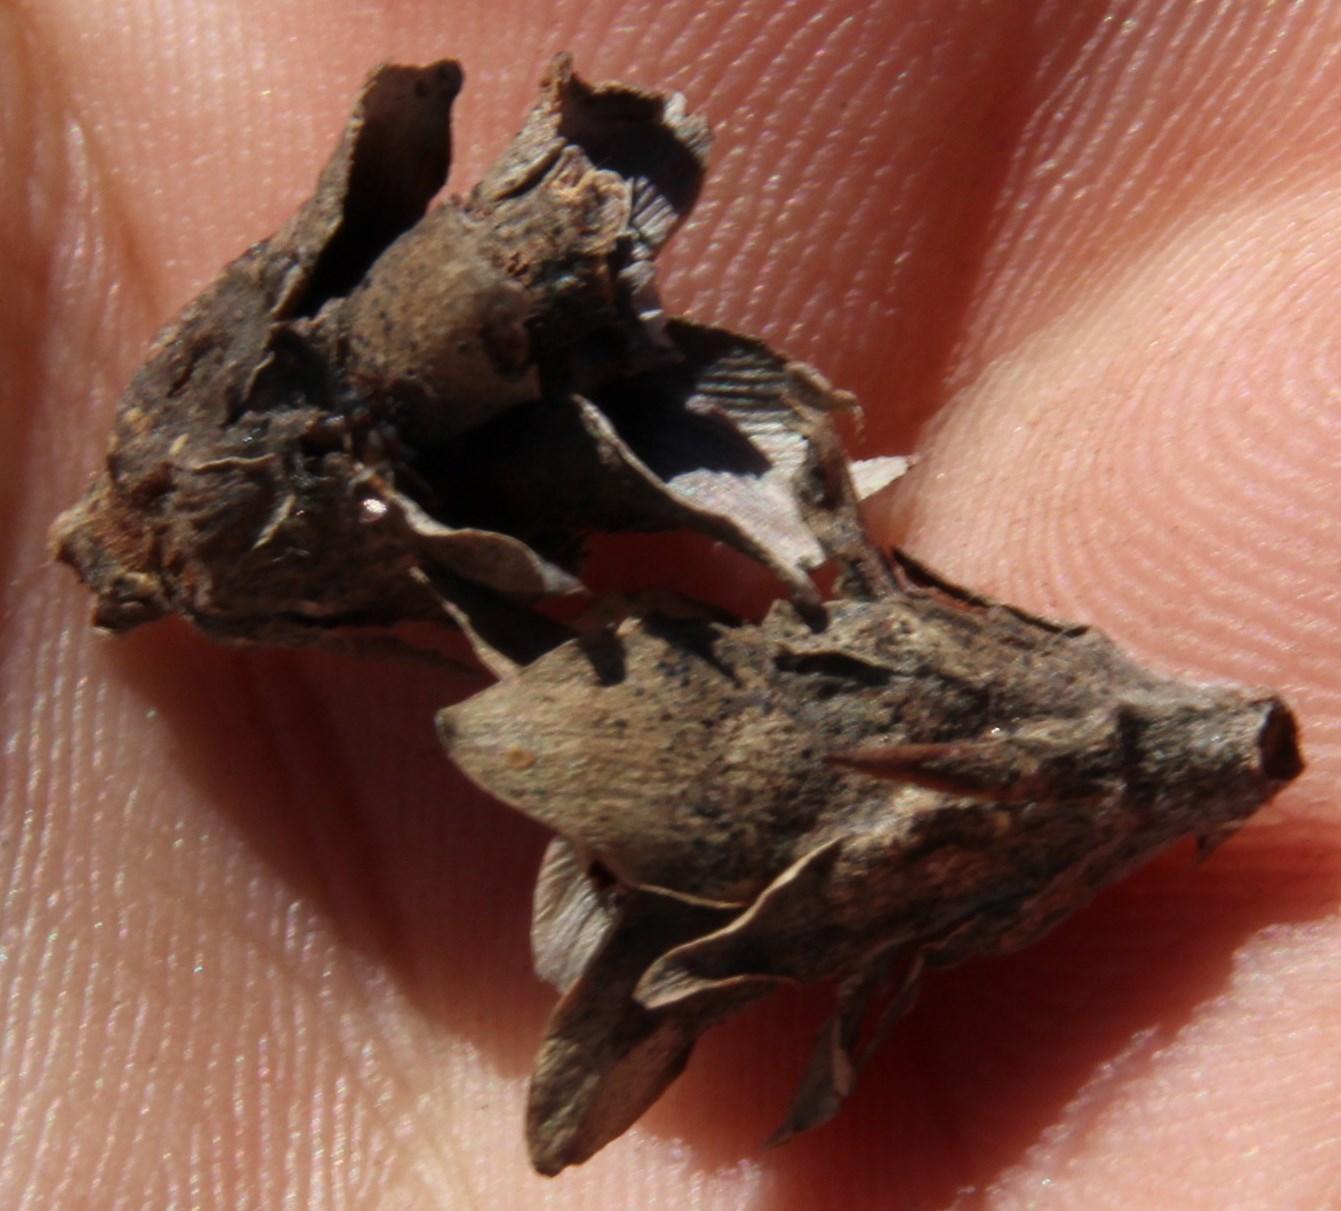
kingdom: Plantae
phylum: Tracheophyta
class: Magnoliopsida
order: Proteales
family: Proteaceae
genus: Leucadendron
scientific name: Leucadendron corymbosum
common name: Swartveld conebush
